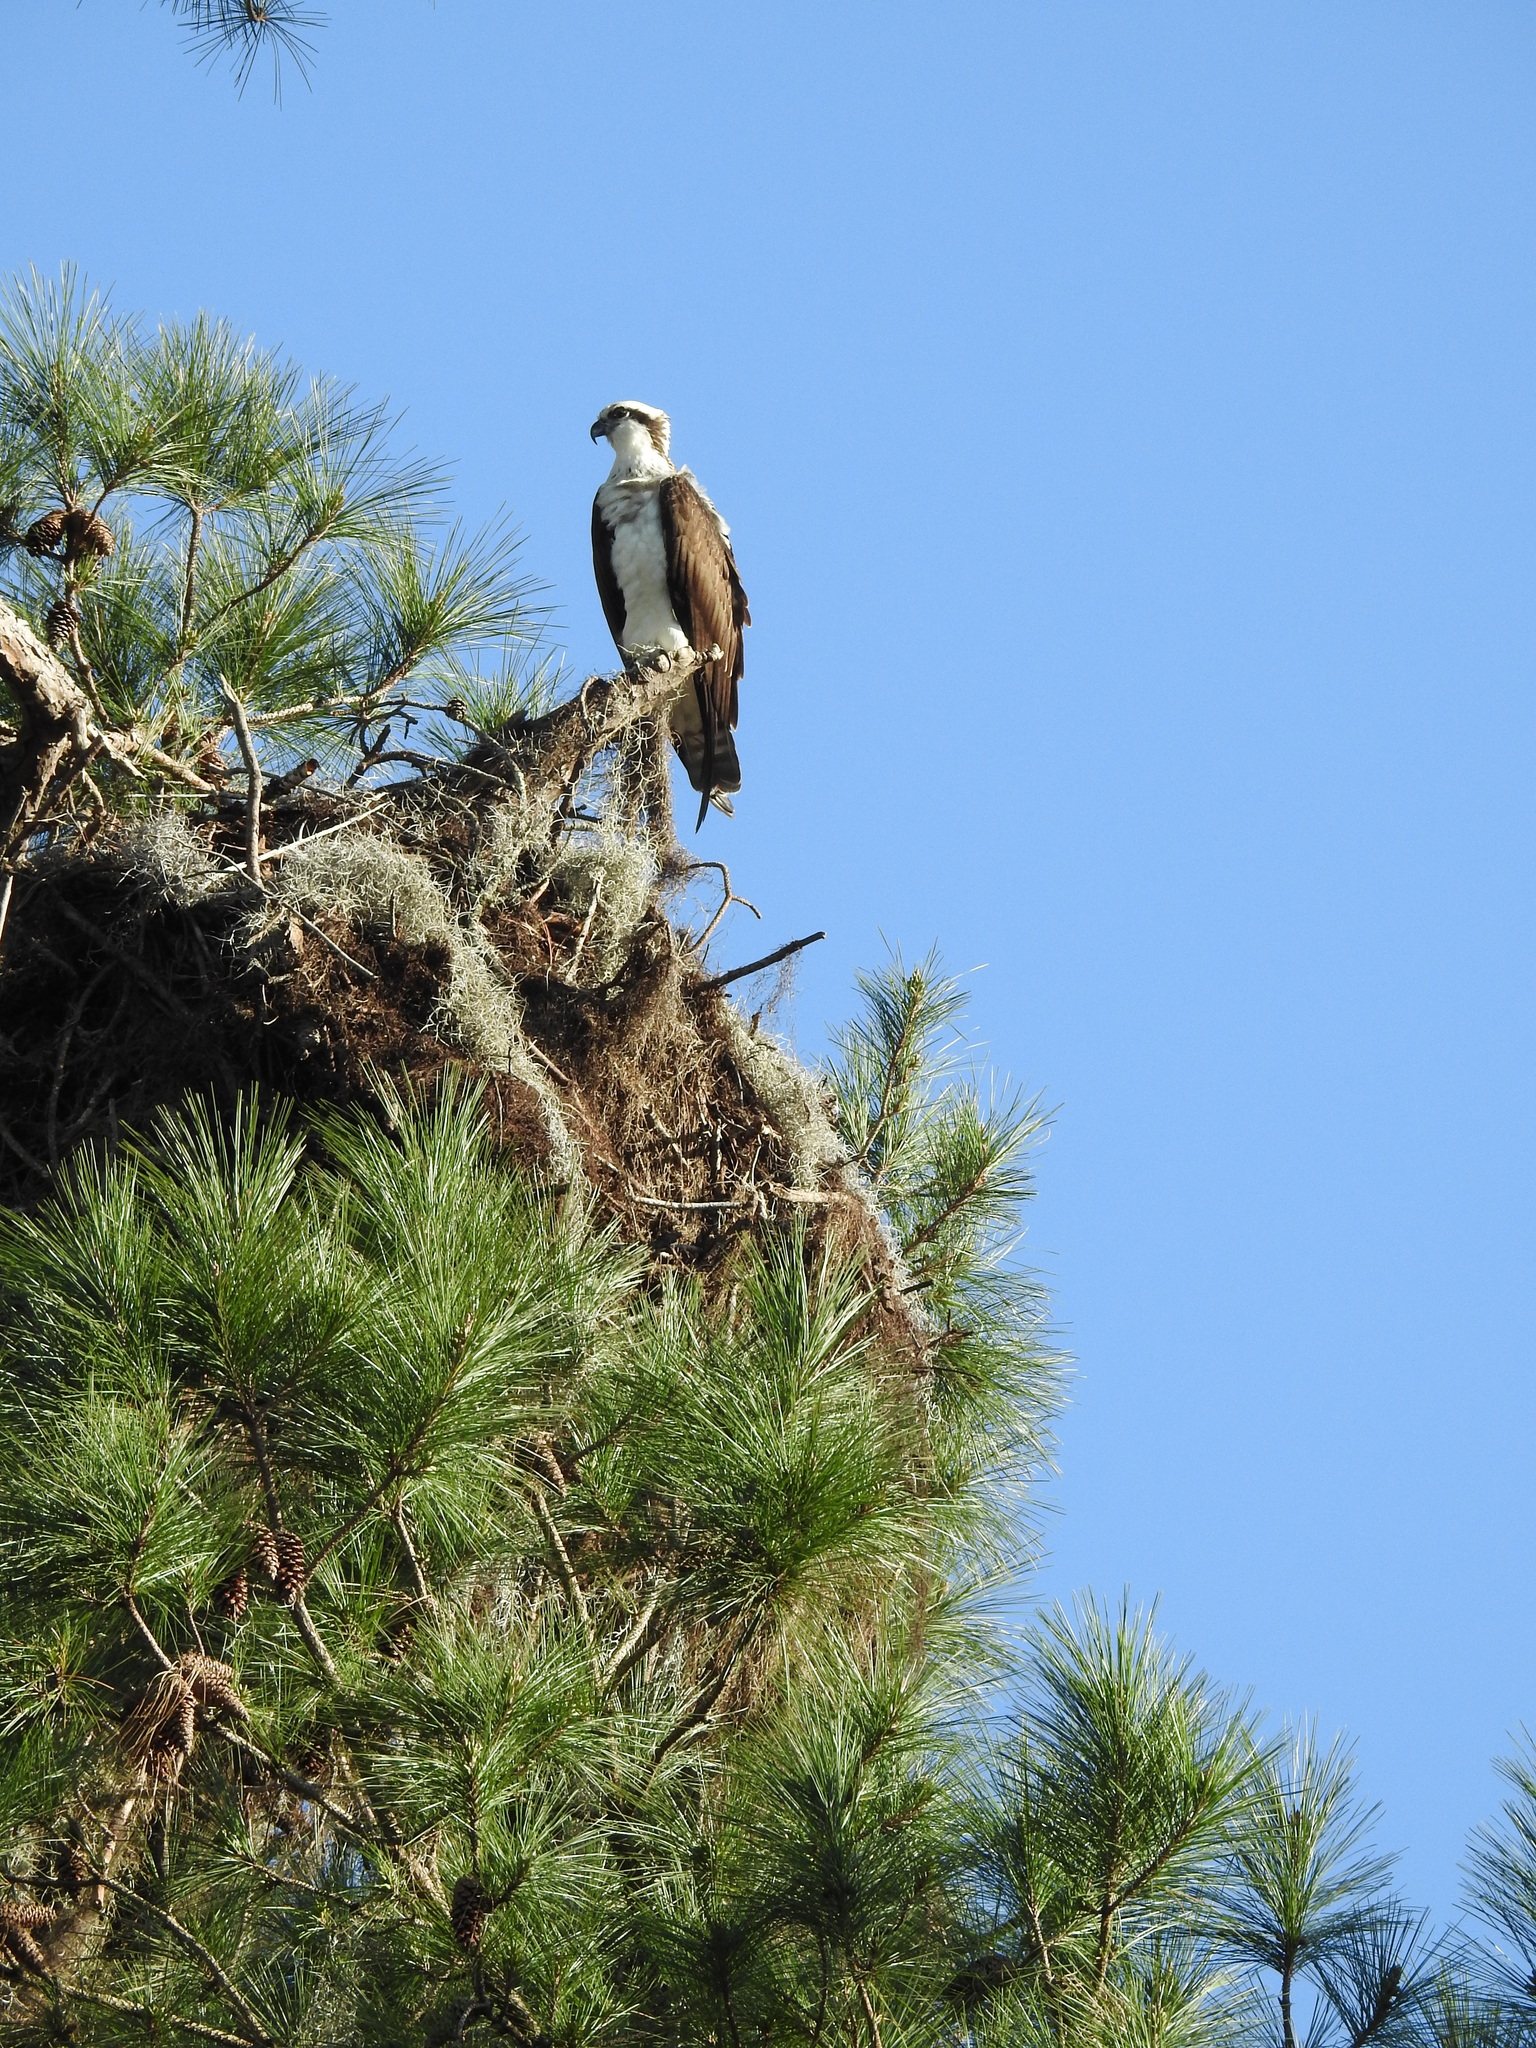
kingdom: Animalia
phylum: Chordata
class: Aves
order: Accipitriformes
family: Pandionidae
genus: Pandion
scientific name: Pandion haliaetus
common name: Osprey
